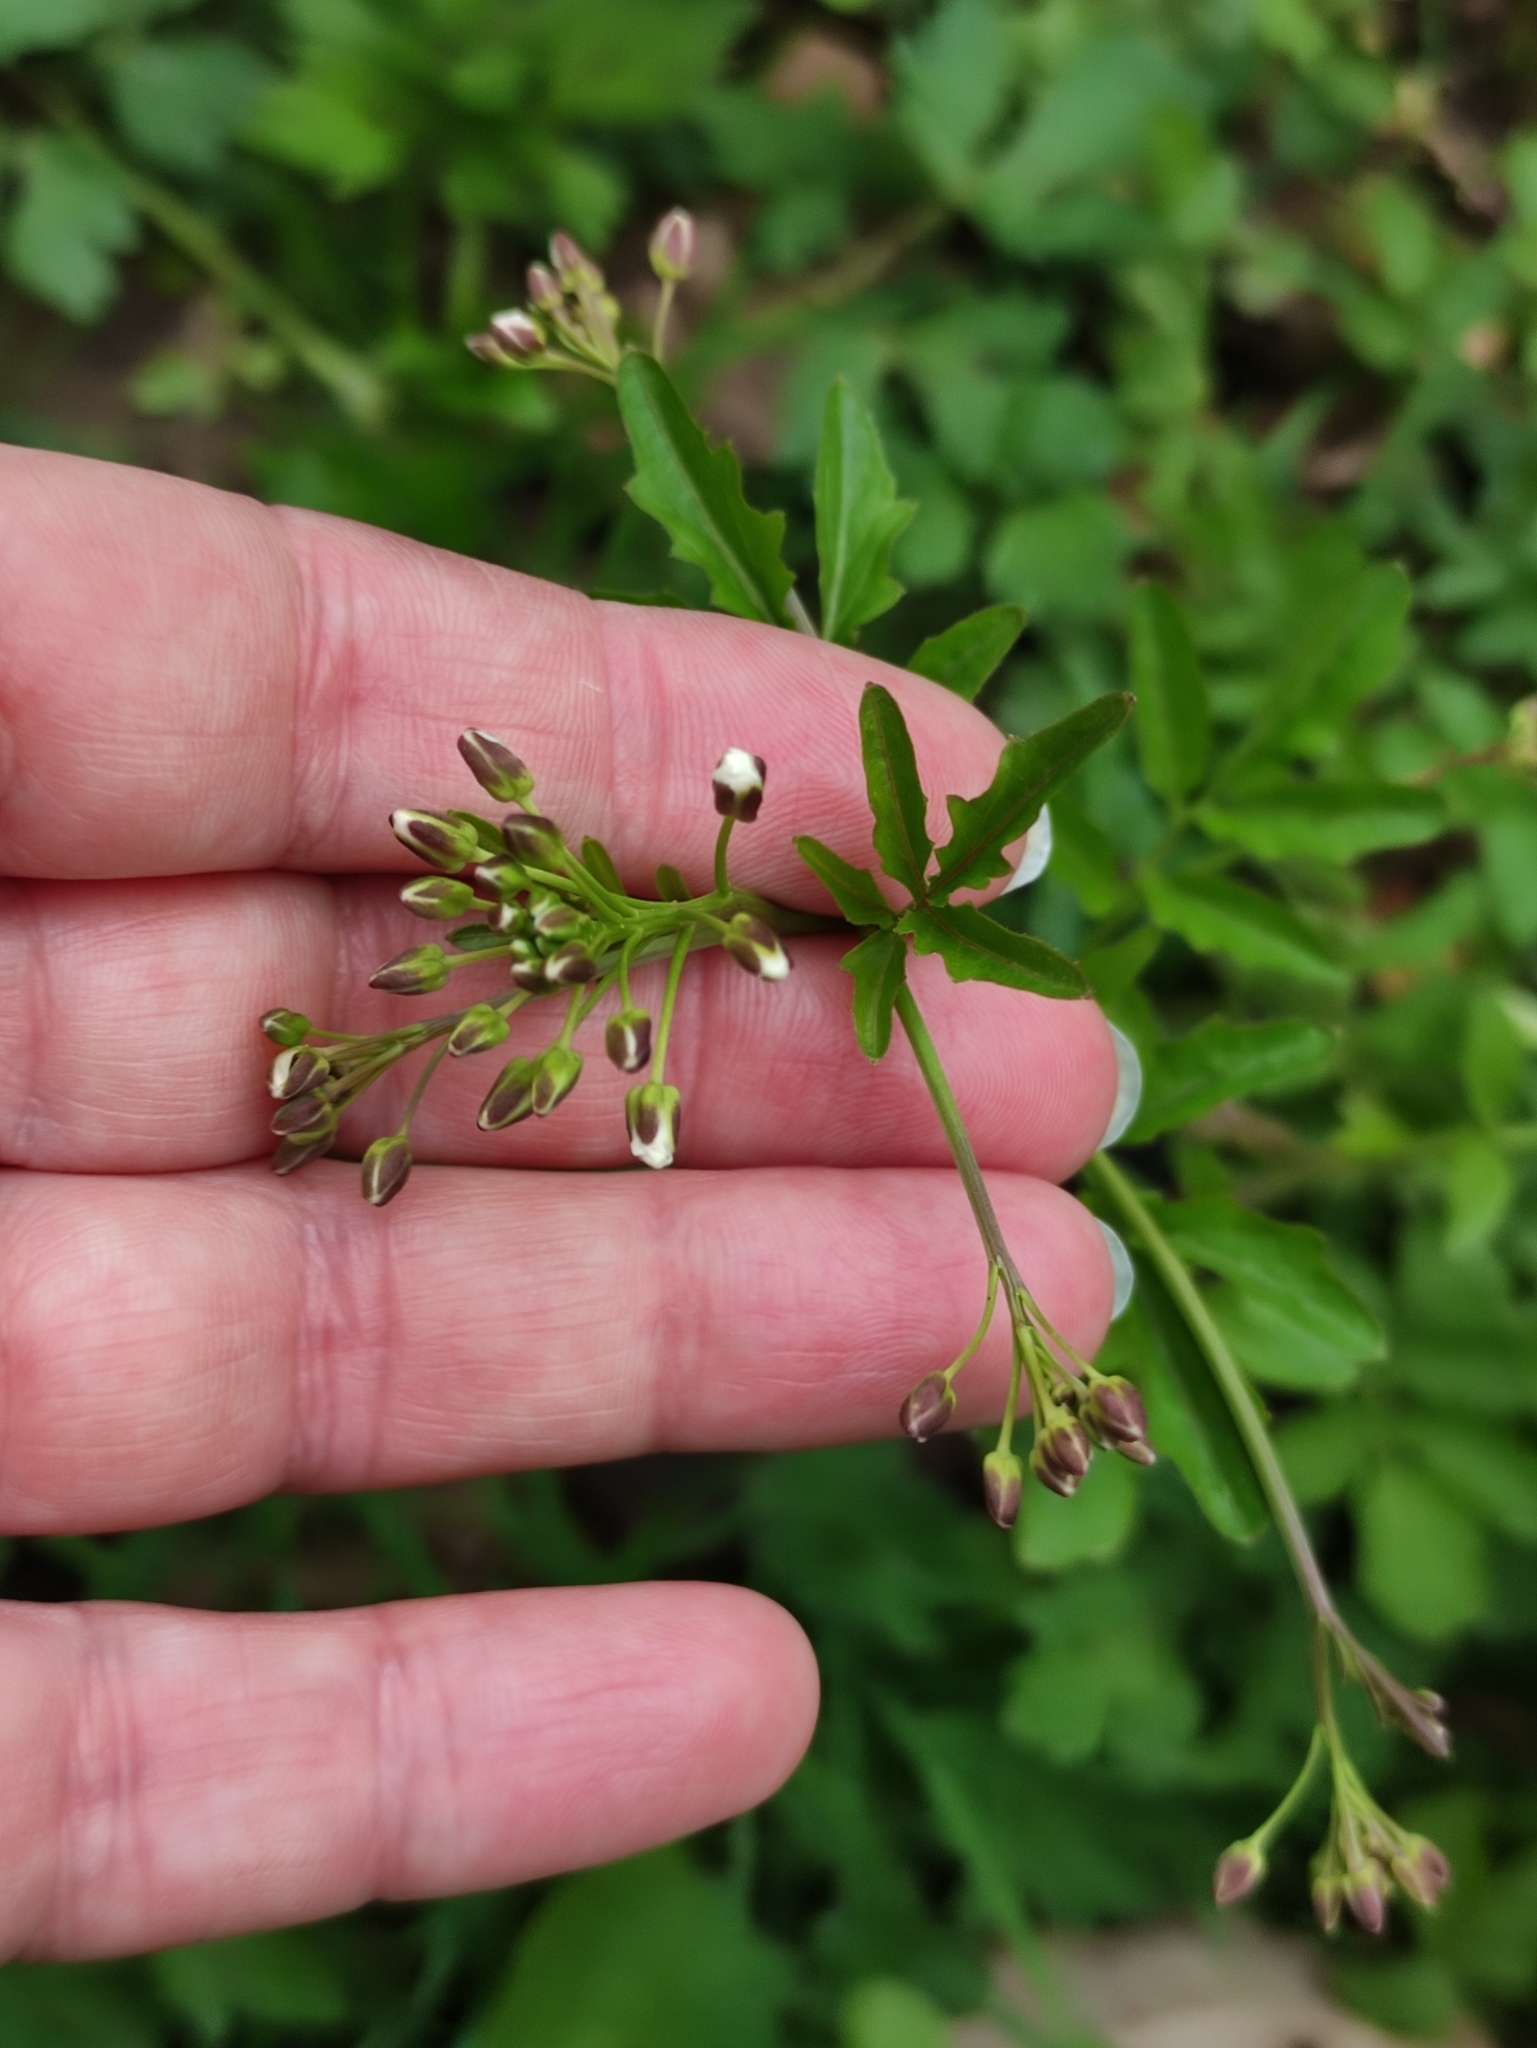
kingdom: Plantae
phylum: Tracheophyta
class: Magnoliopsida
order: Brassicales
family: Brassicaceae
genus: Cardamine
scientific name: Cardamine amara
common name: Large bitter-cress
